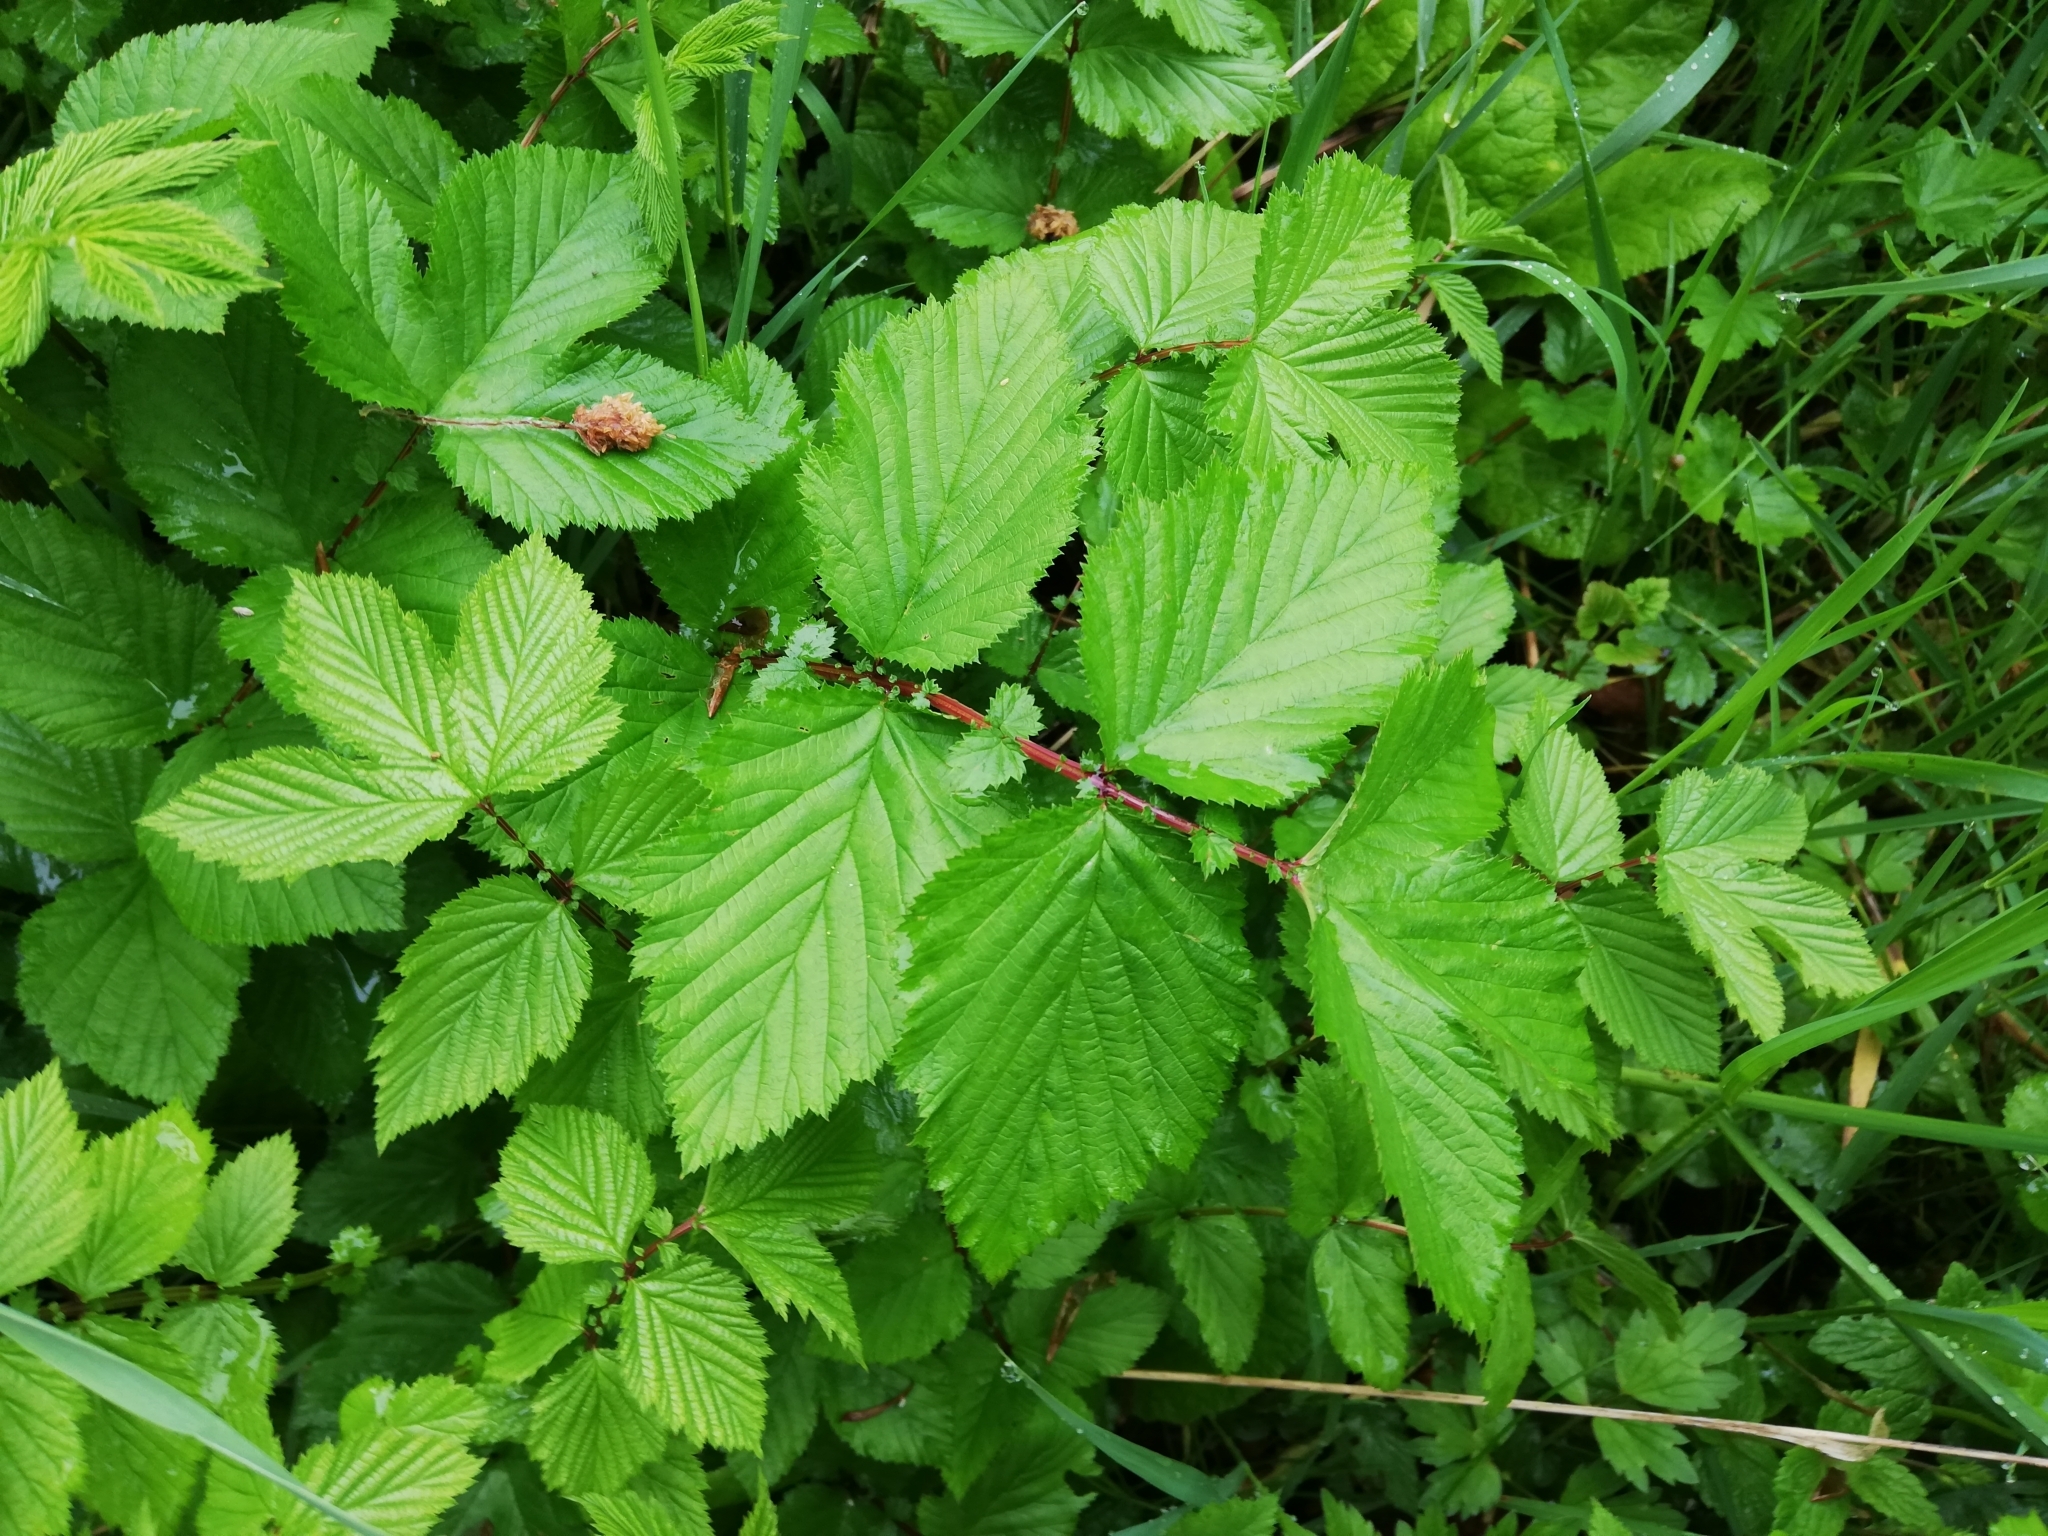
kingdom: Plantae
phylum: Tracheophyta
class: Magnoliopsida
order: Rosales
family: Rosaceae
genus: Filipendula
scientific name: Filipendula ulmaria
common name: Meadowsweet
